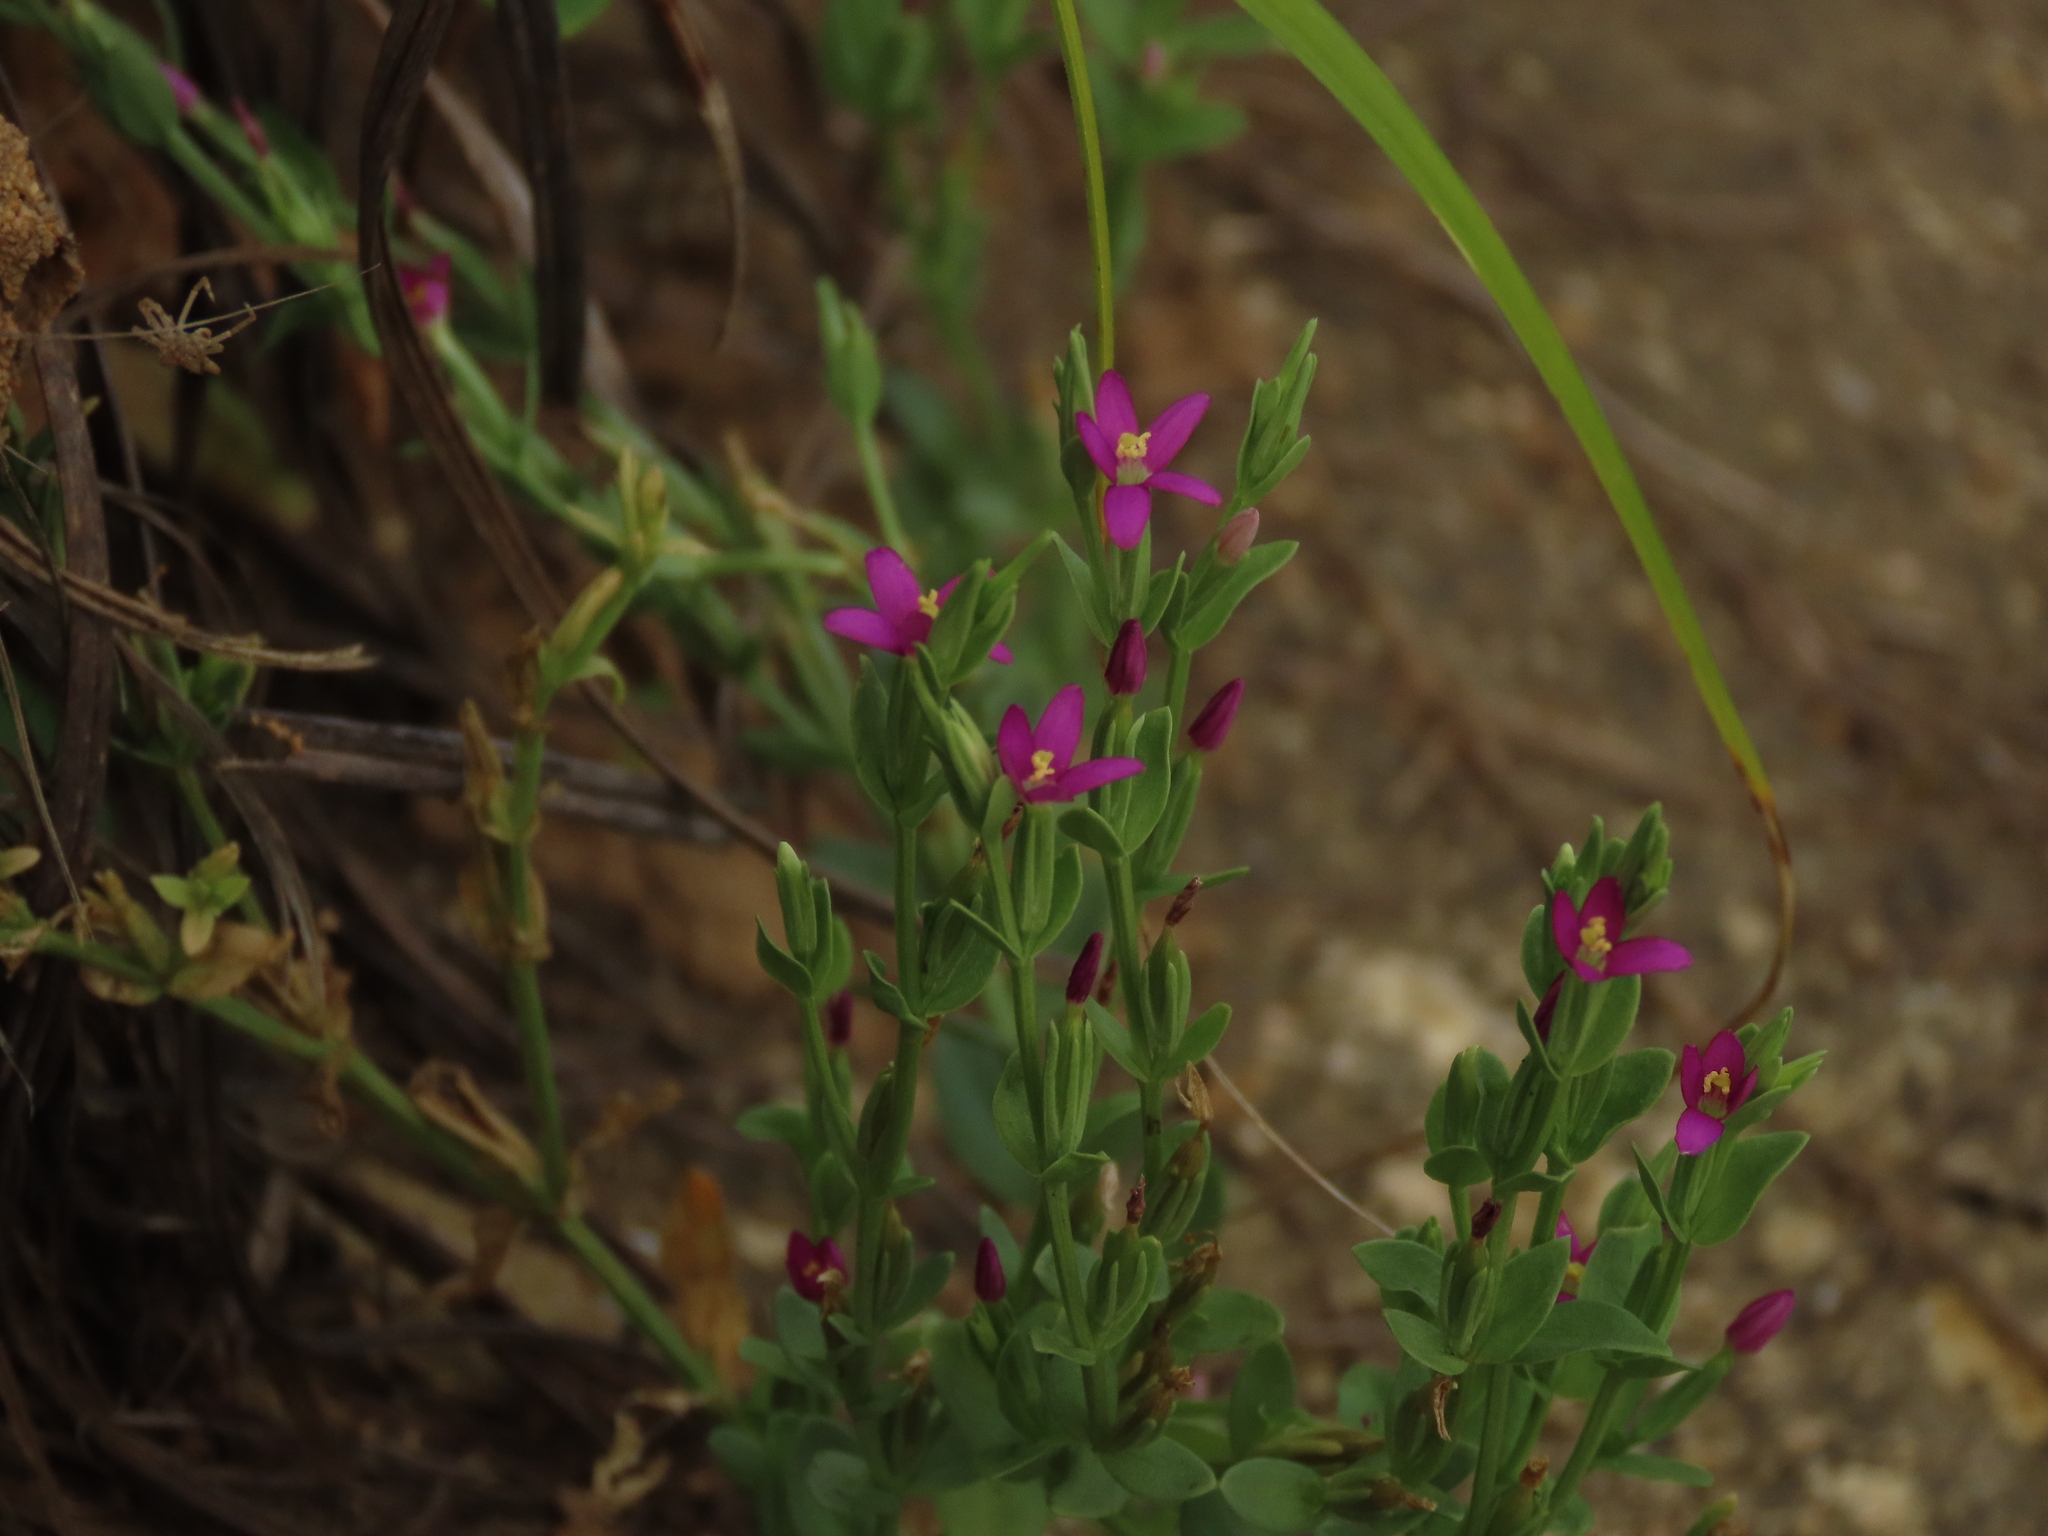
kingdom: Plantae
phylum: Tracheophyta
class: Magnoliopsida
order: Gentianales
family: Gentianaceae
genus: Schenkia
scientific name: Schenkia japonica
